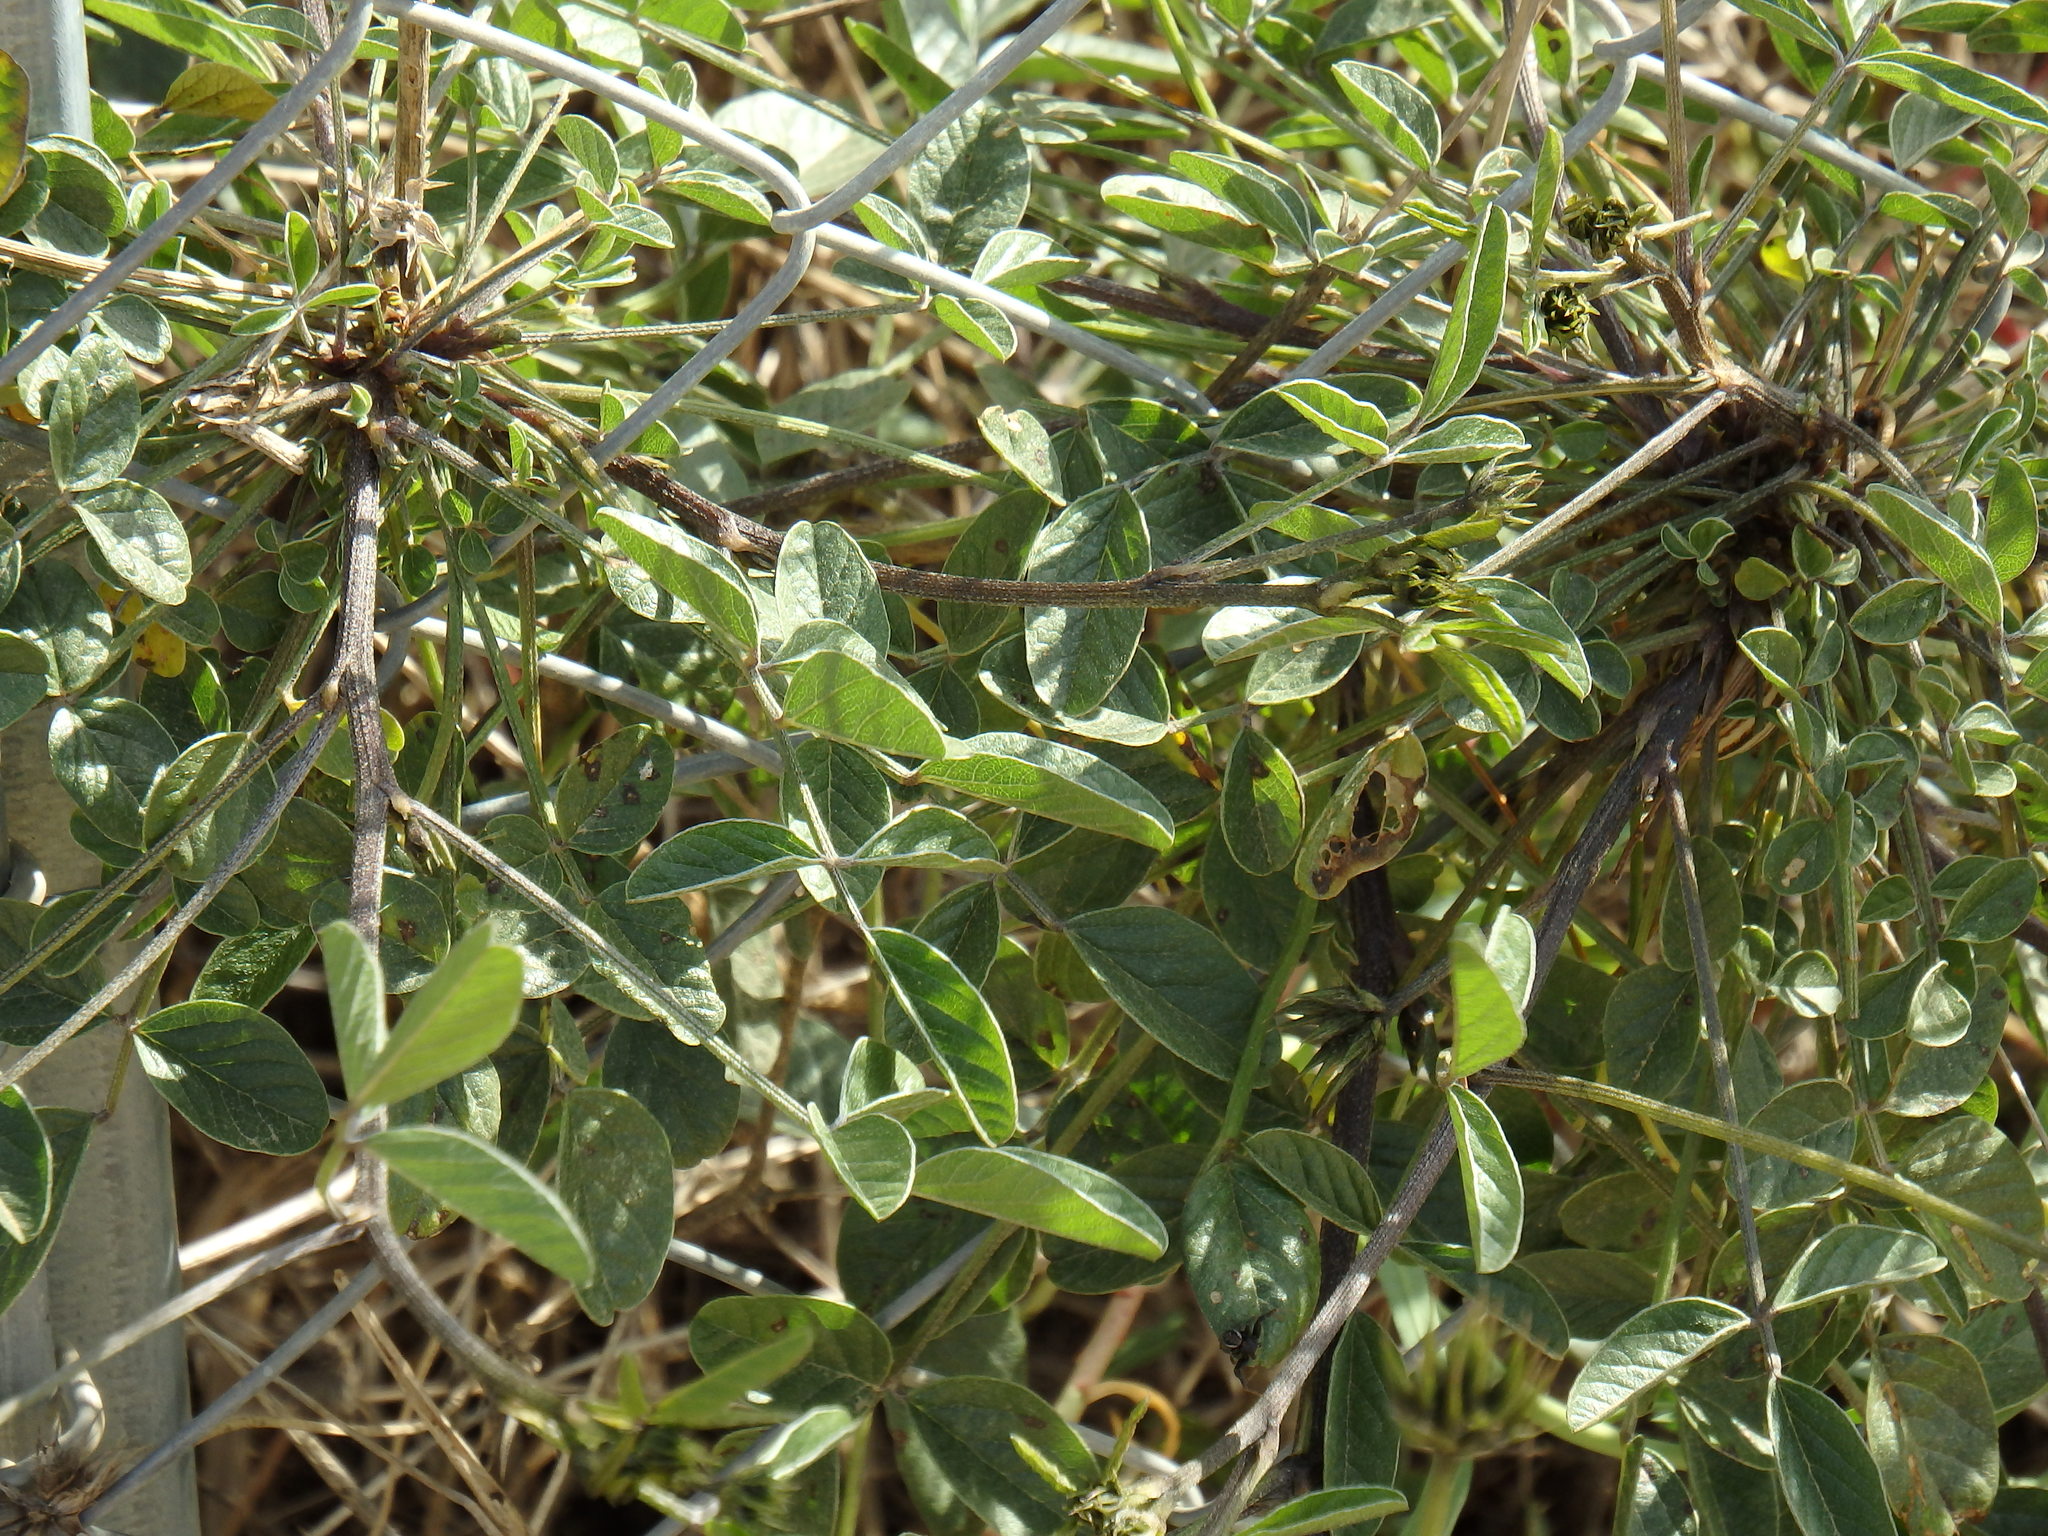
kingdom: Plantae
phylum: Tracheophyta
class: Magnoliopsida
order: Fabales
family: Fabaceae
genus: Bituminaria
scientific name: Bituminaria bituminosa
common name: Arabian pea
